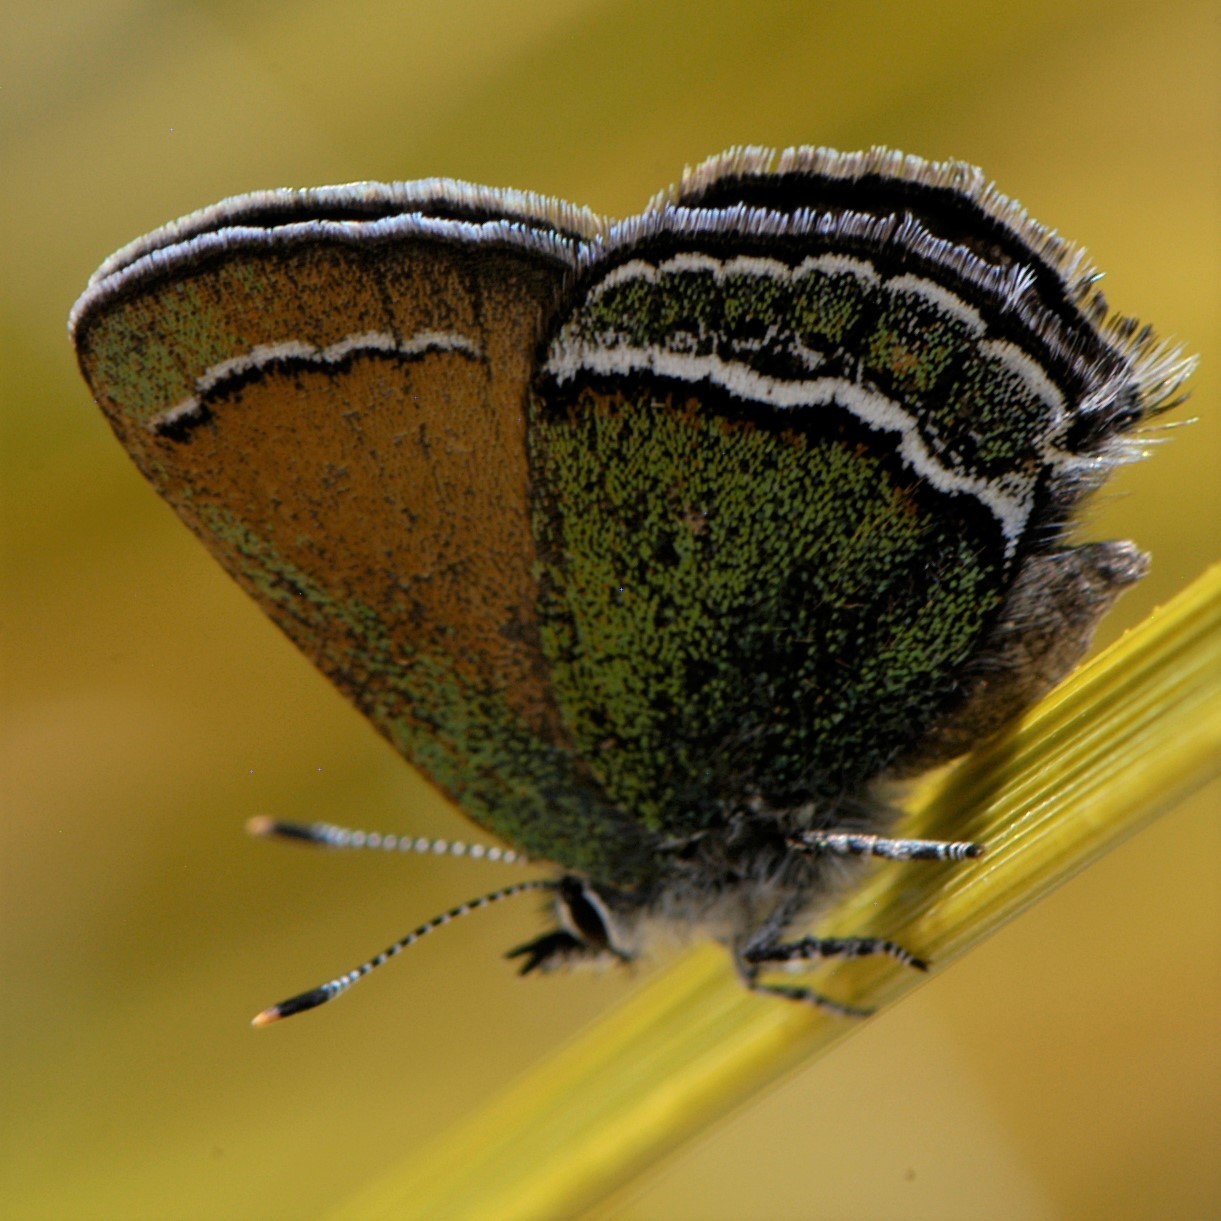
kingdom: Animalia
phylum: Arthropoda
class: Insecta
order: Lepidoptera
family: Lycaenidae
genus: Sandia
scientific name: Sandia mcfarlandi
